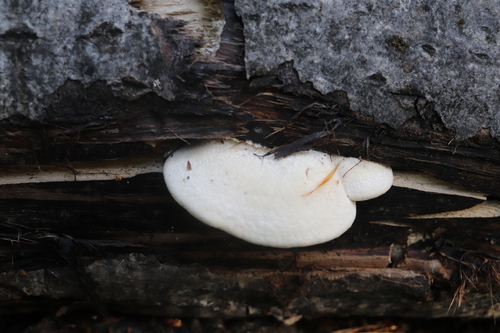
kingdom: Fungi
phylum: Basidiomycota
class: Agaricomycetes
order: Polyporales
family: Polyporaceae
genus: Lentinus
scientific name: Lentinus pilososquamulosus
